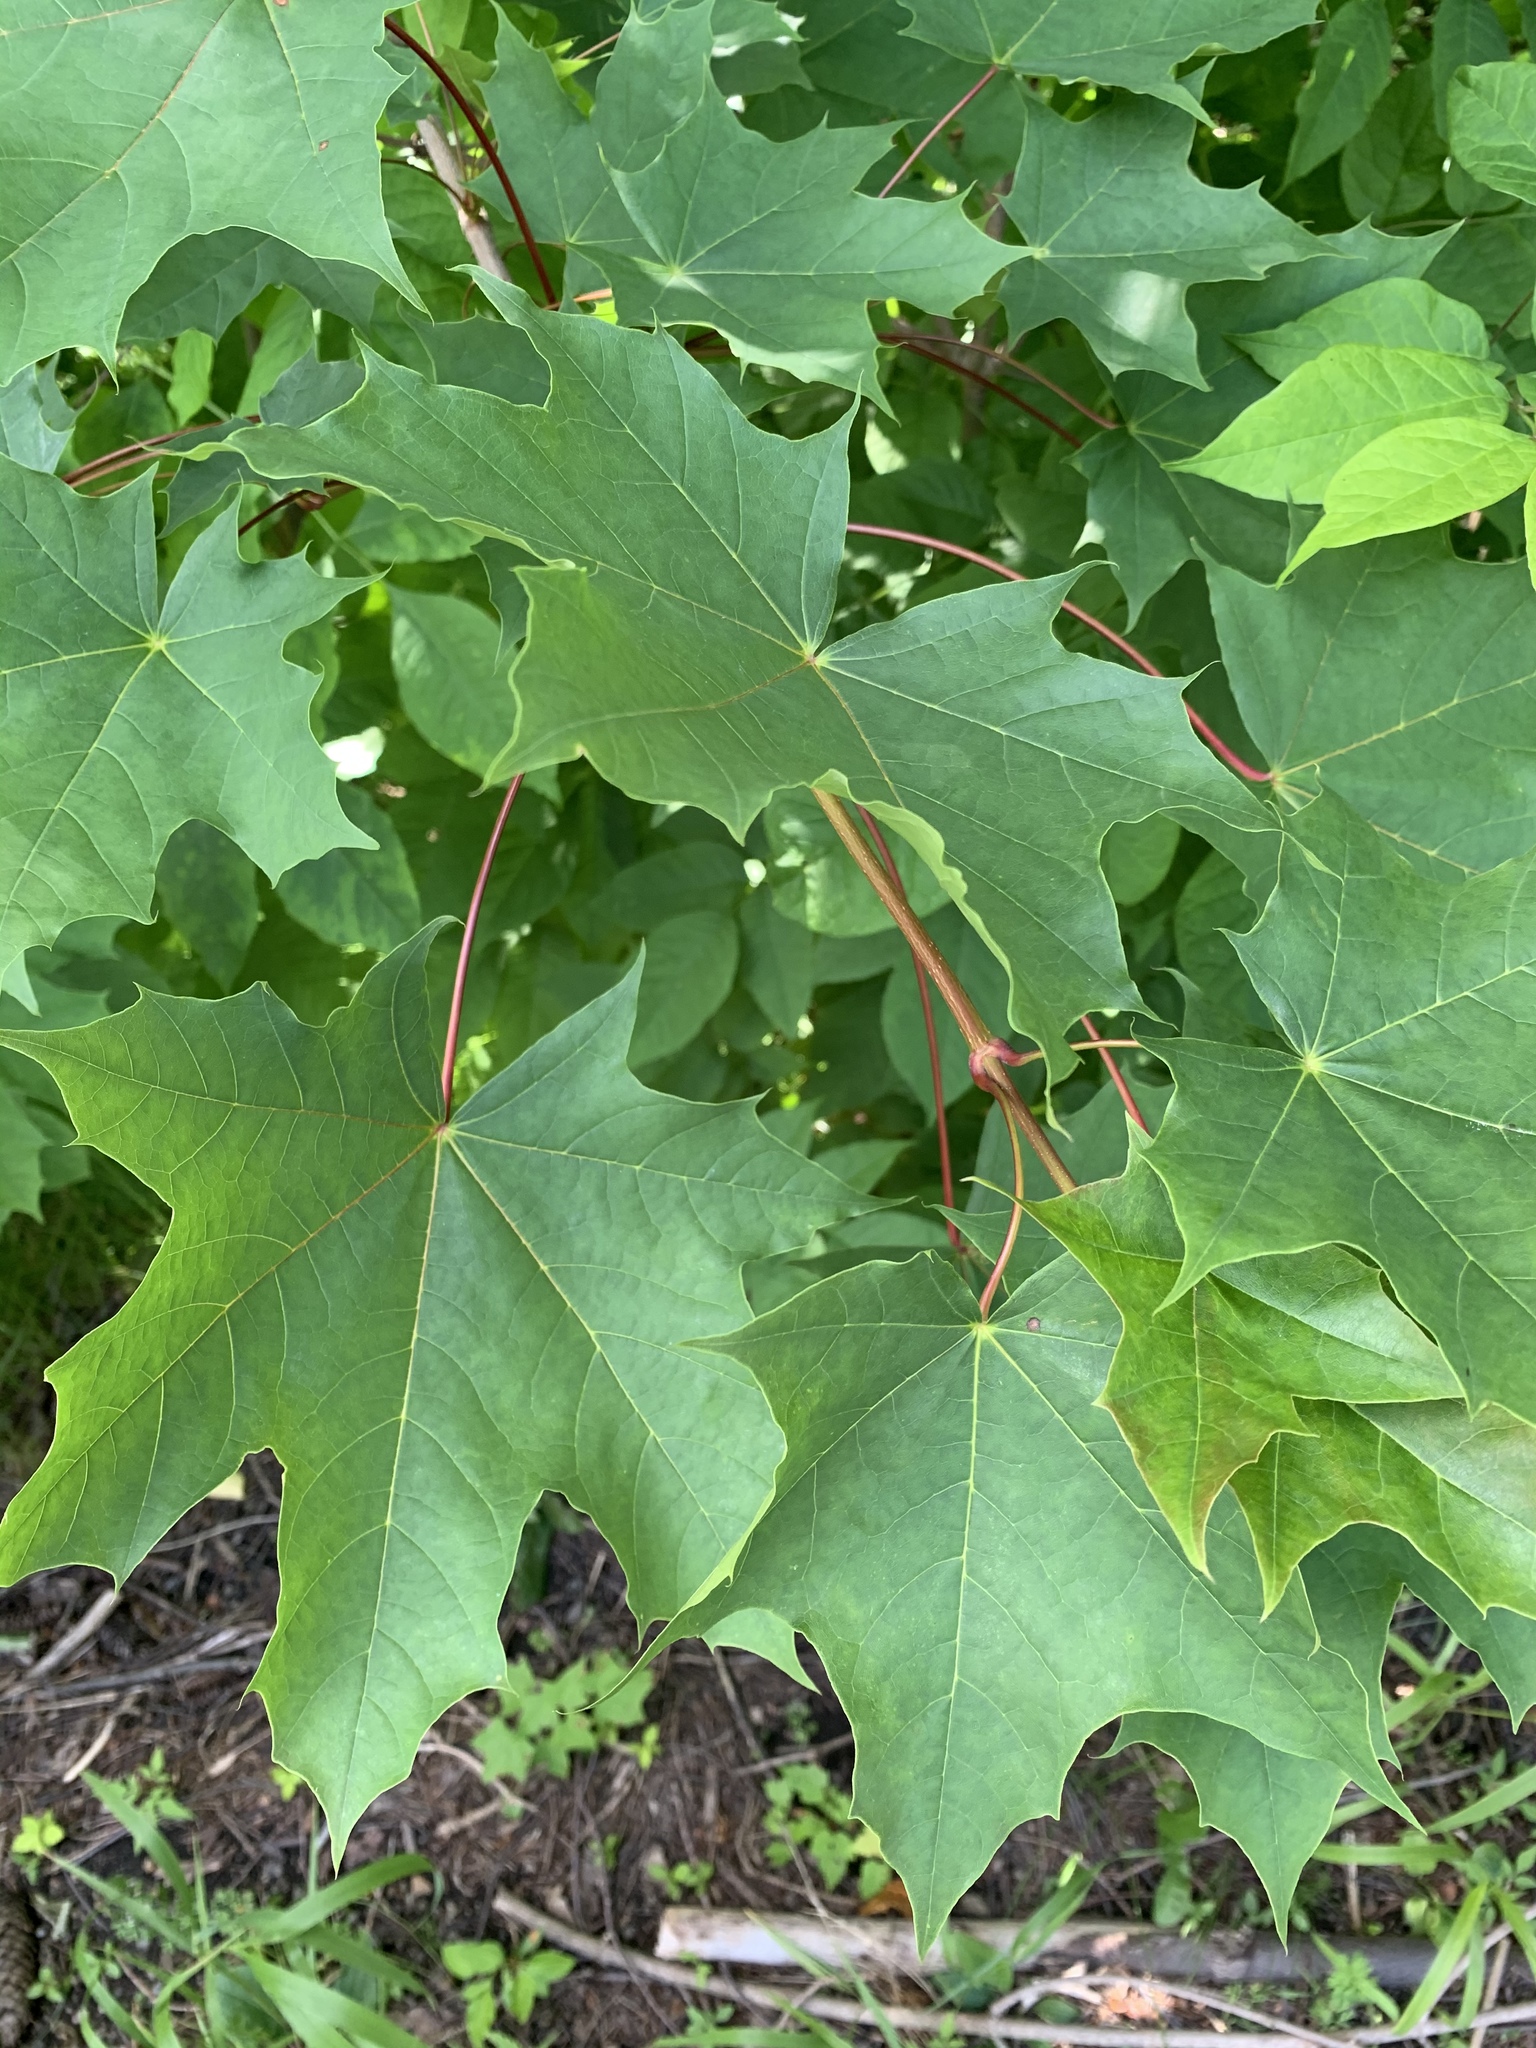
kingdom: Plantae
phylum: Tracheophyta
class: Magnoliopsida
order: Sapindales
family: Sapindaceae
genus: Acer
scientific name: Acer platanoides
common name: Norway maple
